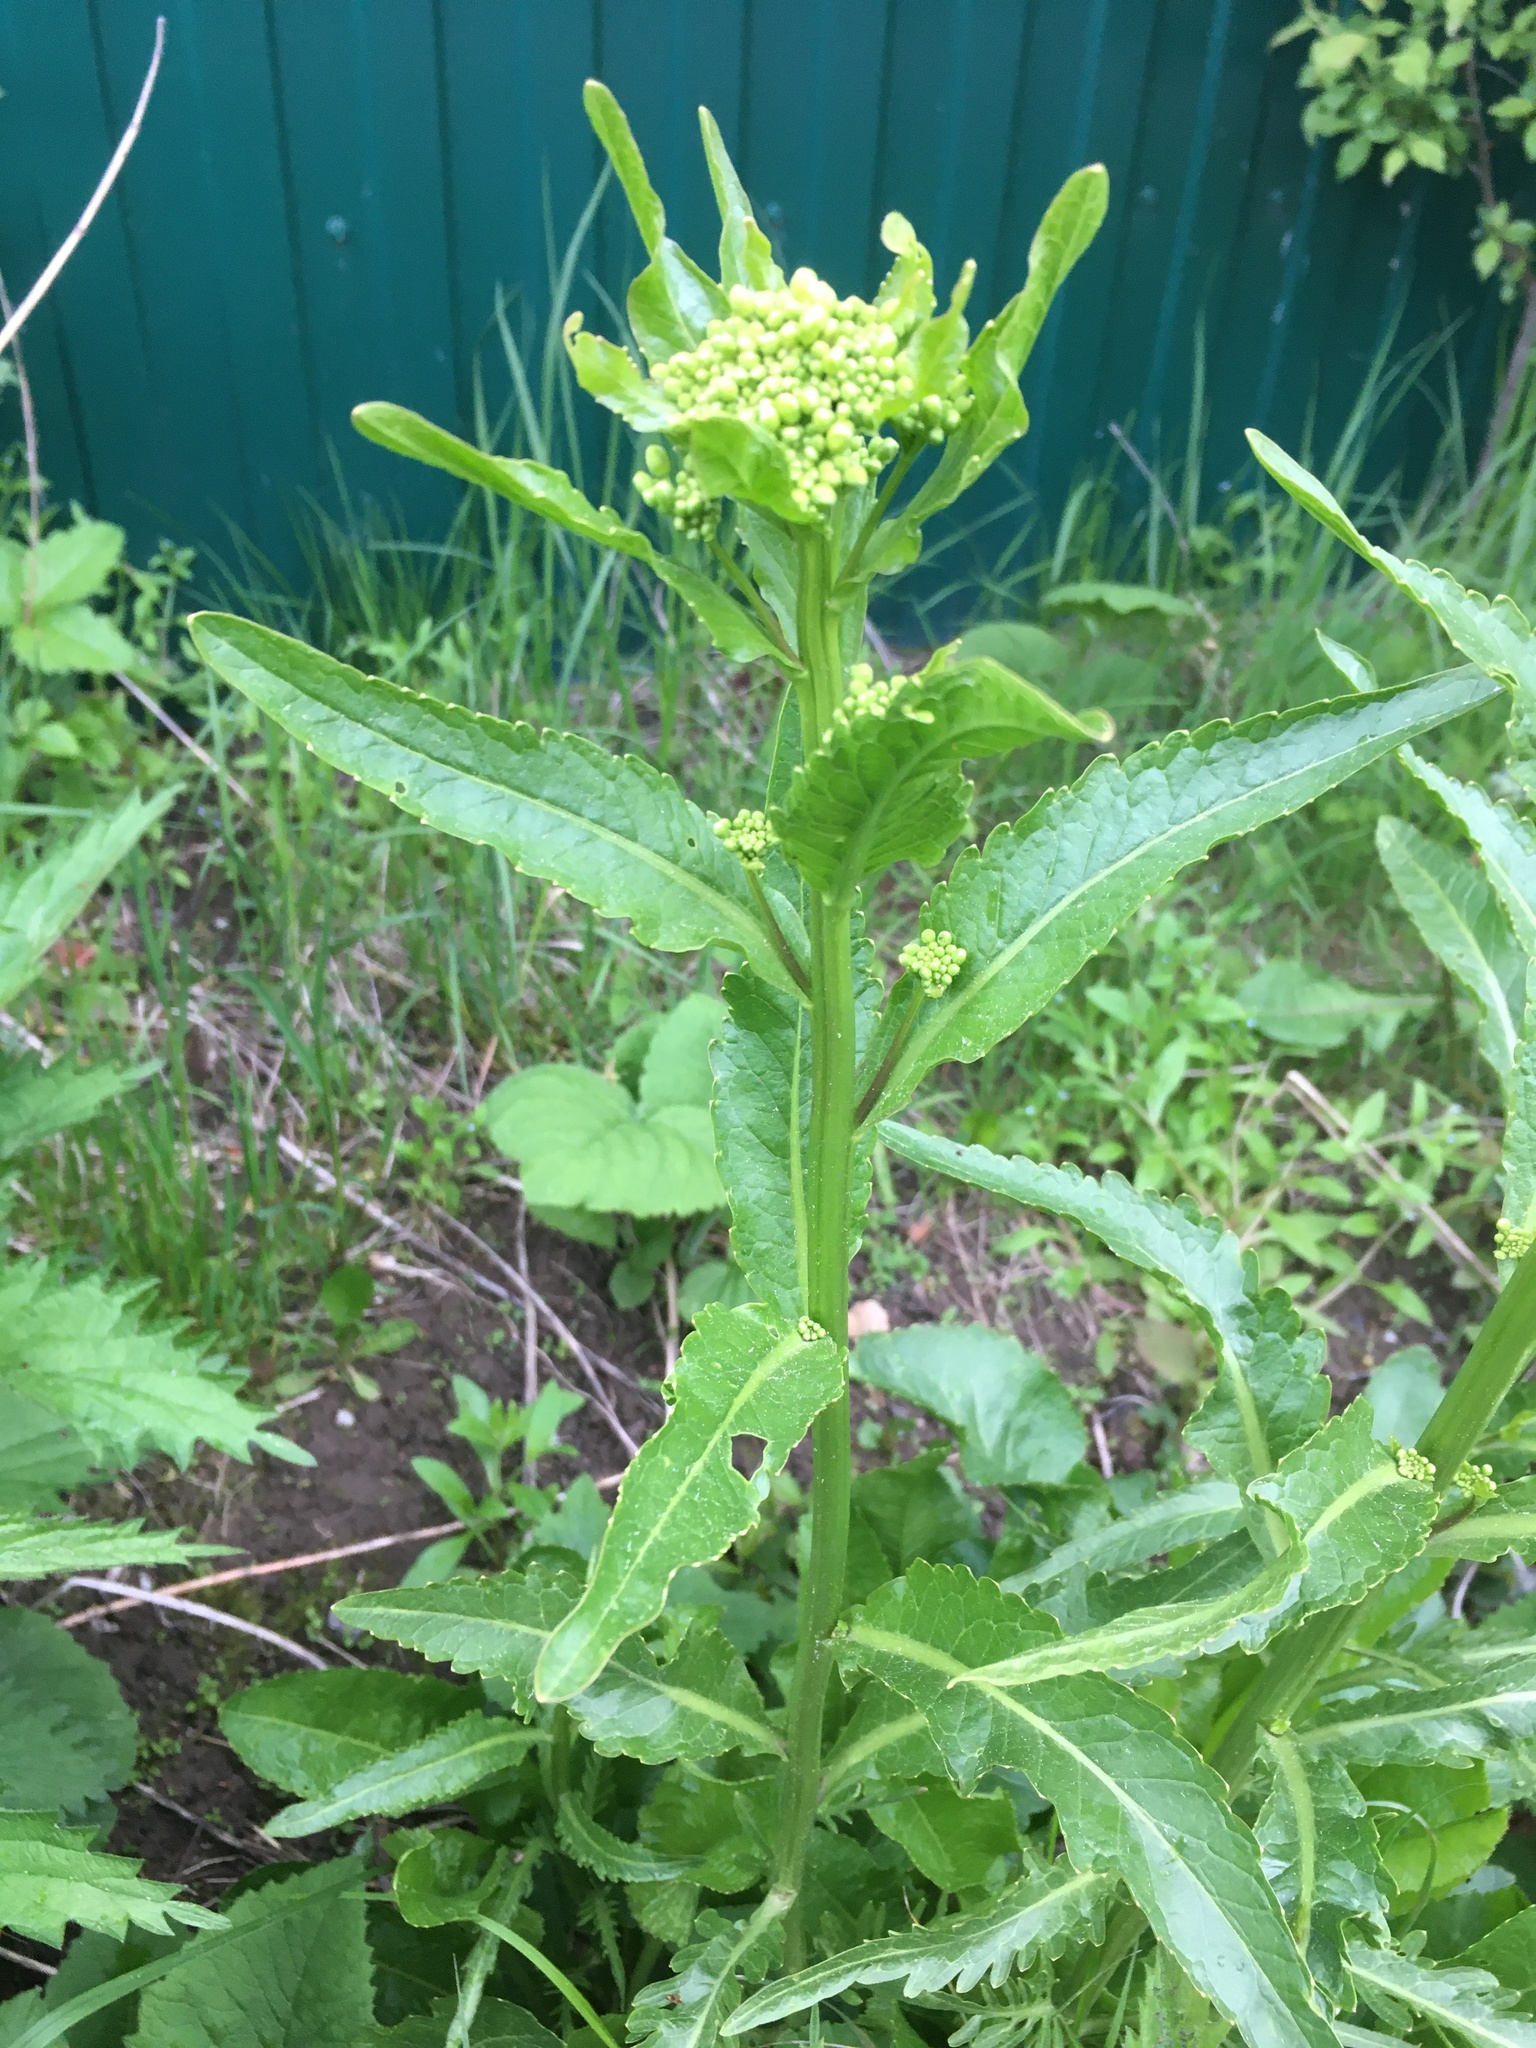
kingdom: Plantae
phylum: Tracheophyta
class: Magnoliopsida
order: Brassicales
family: Brassicaceae
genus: Bunias
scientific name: Bunias orientalis
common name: Warty-cabbage
